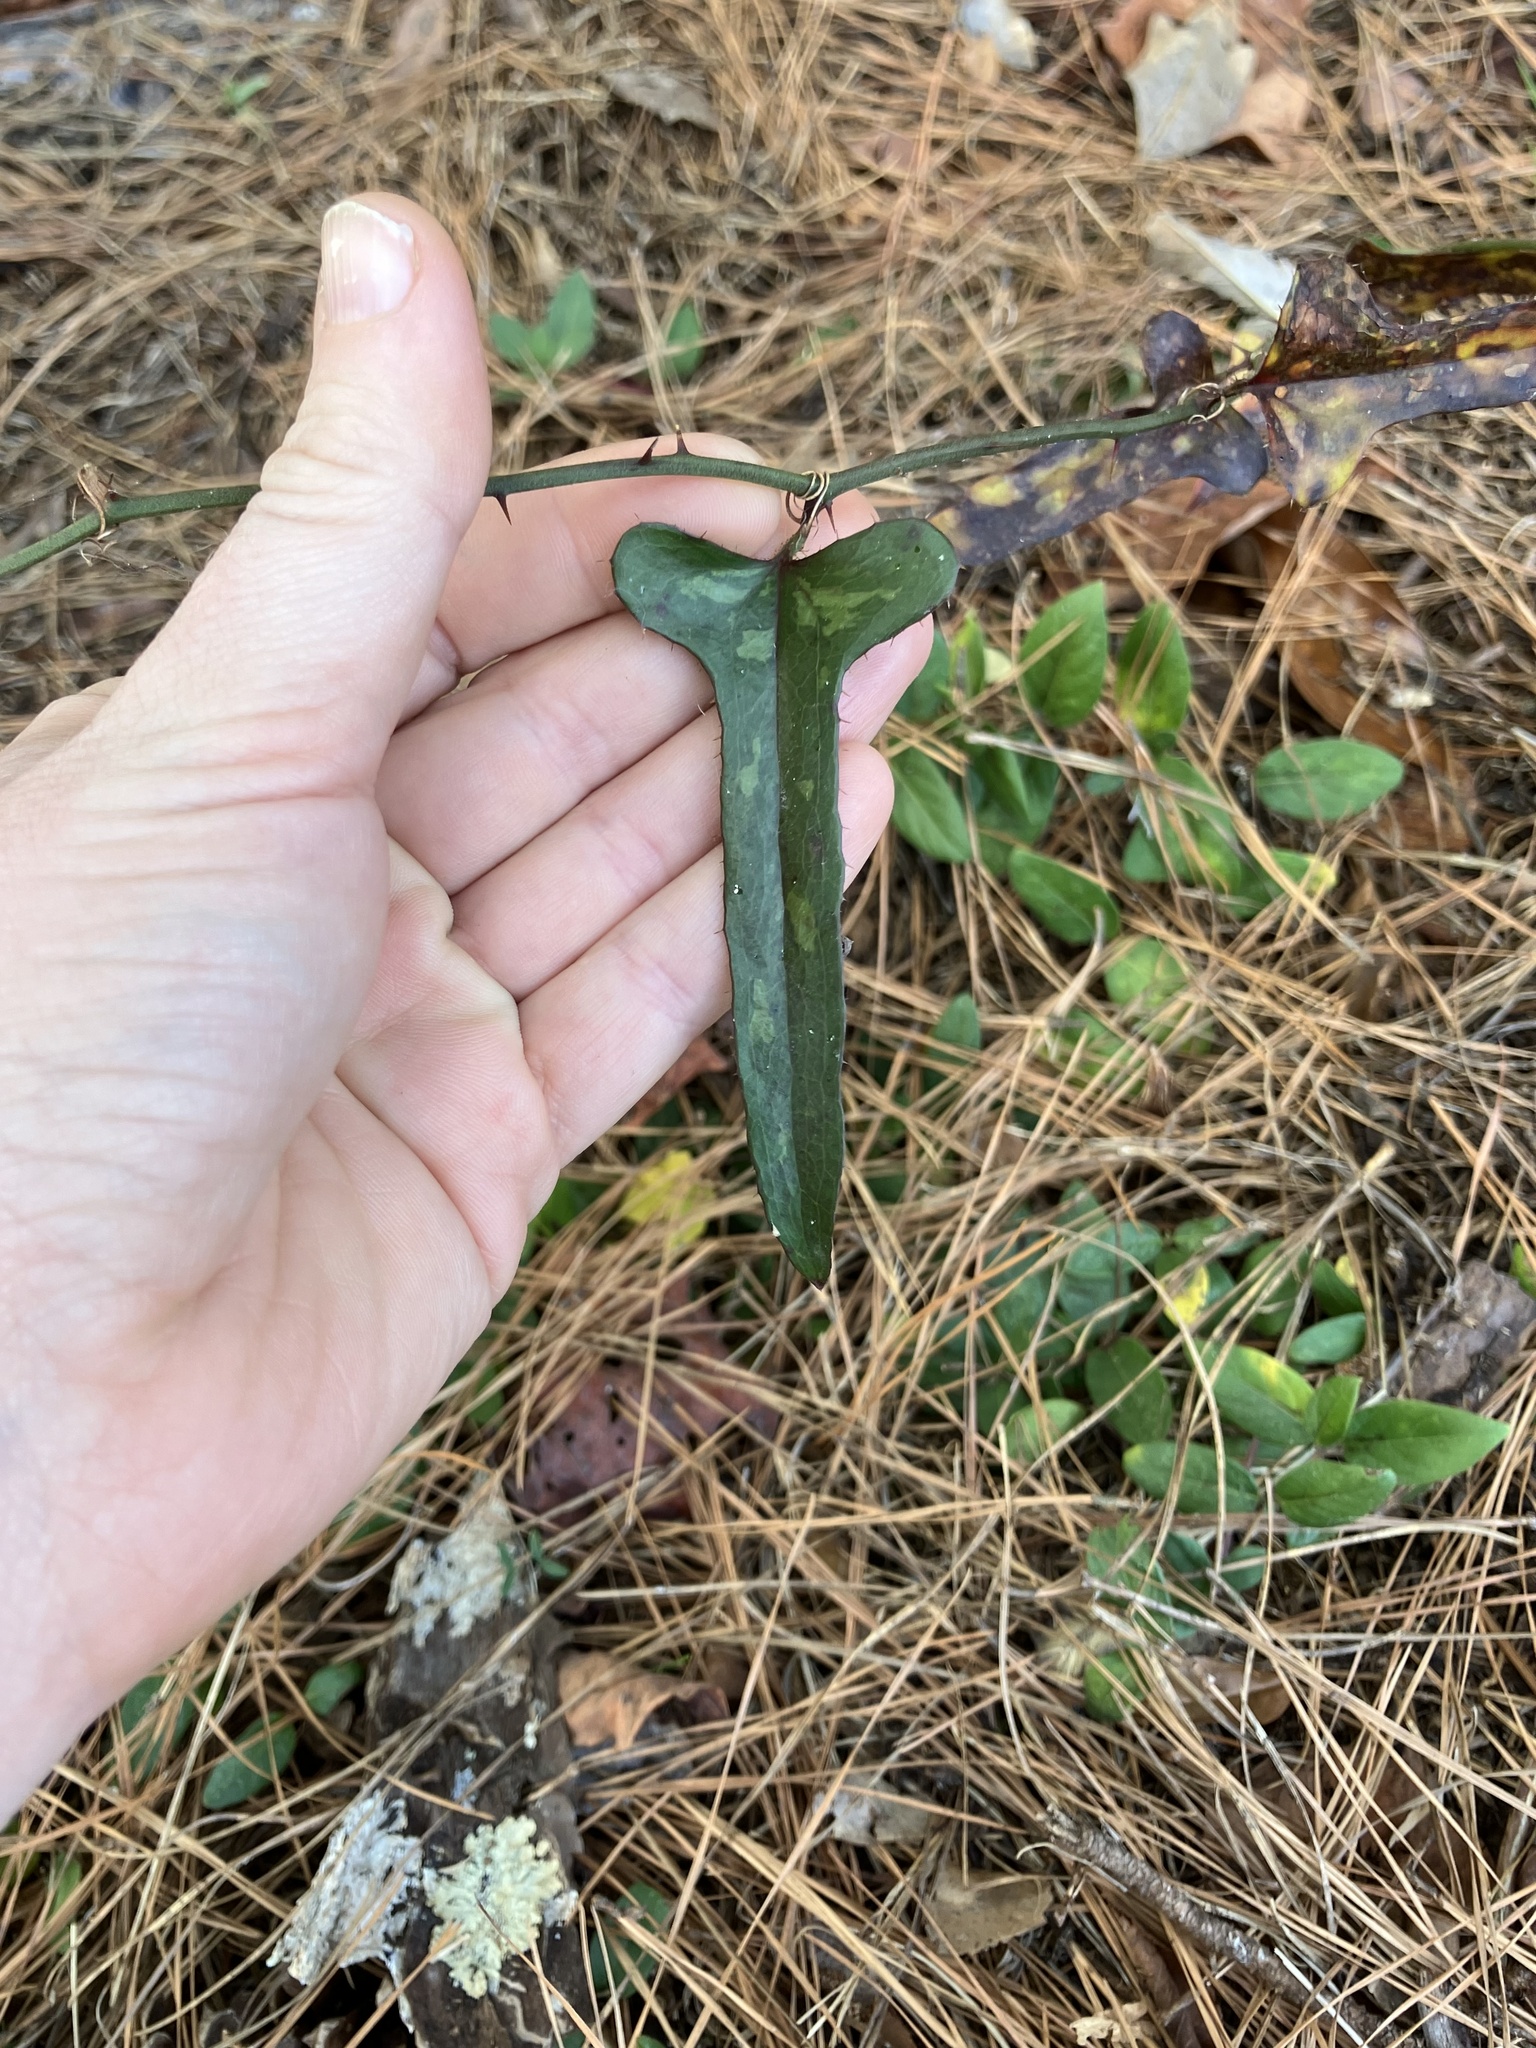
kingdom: Plantae
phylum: Tracheophyta
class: Liliopsida
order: Liliales
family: Smilacaceae
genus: Smilax
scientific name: Smilax bona-nox
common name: Catbrier
